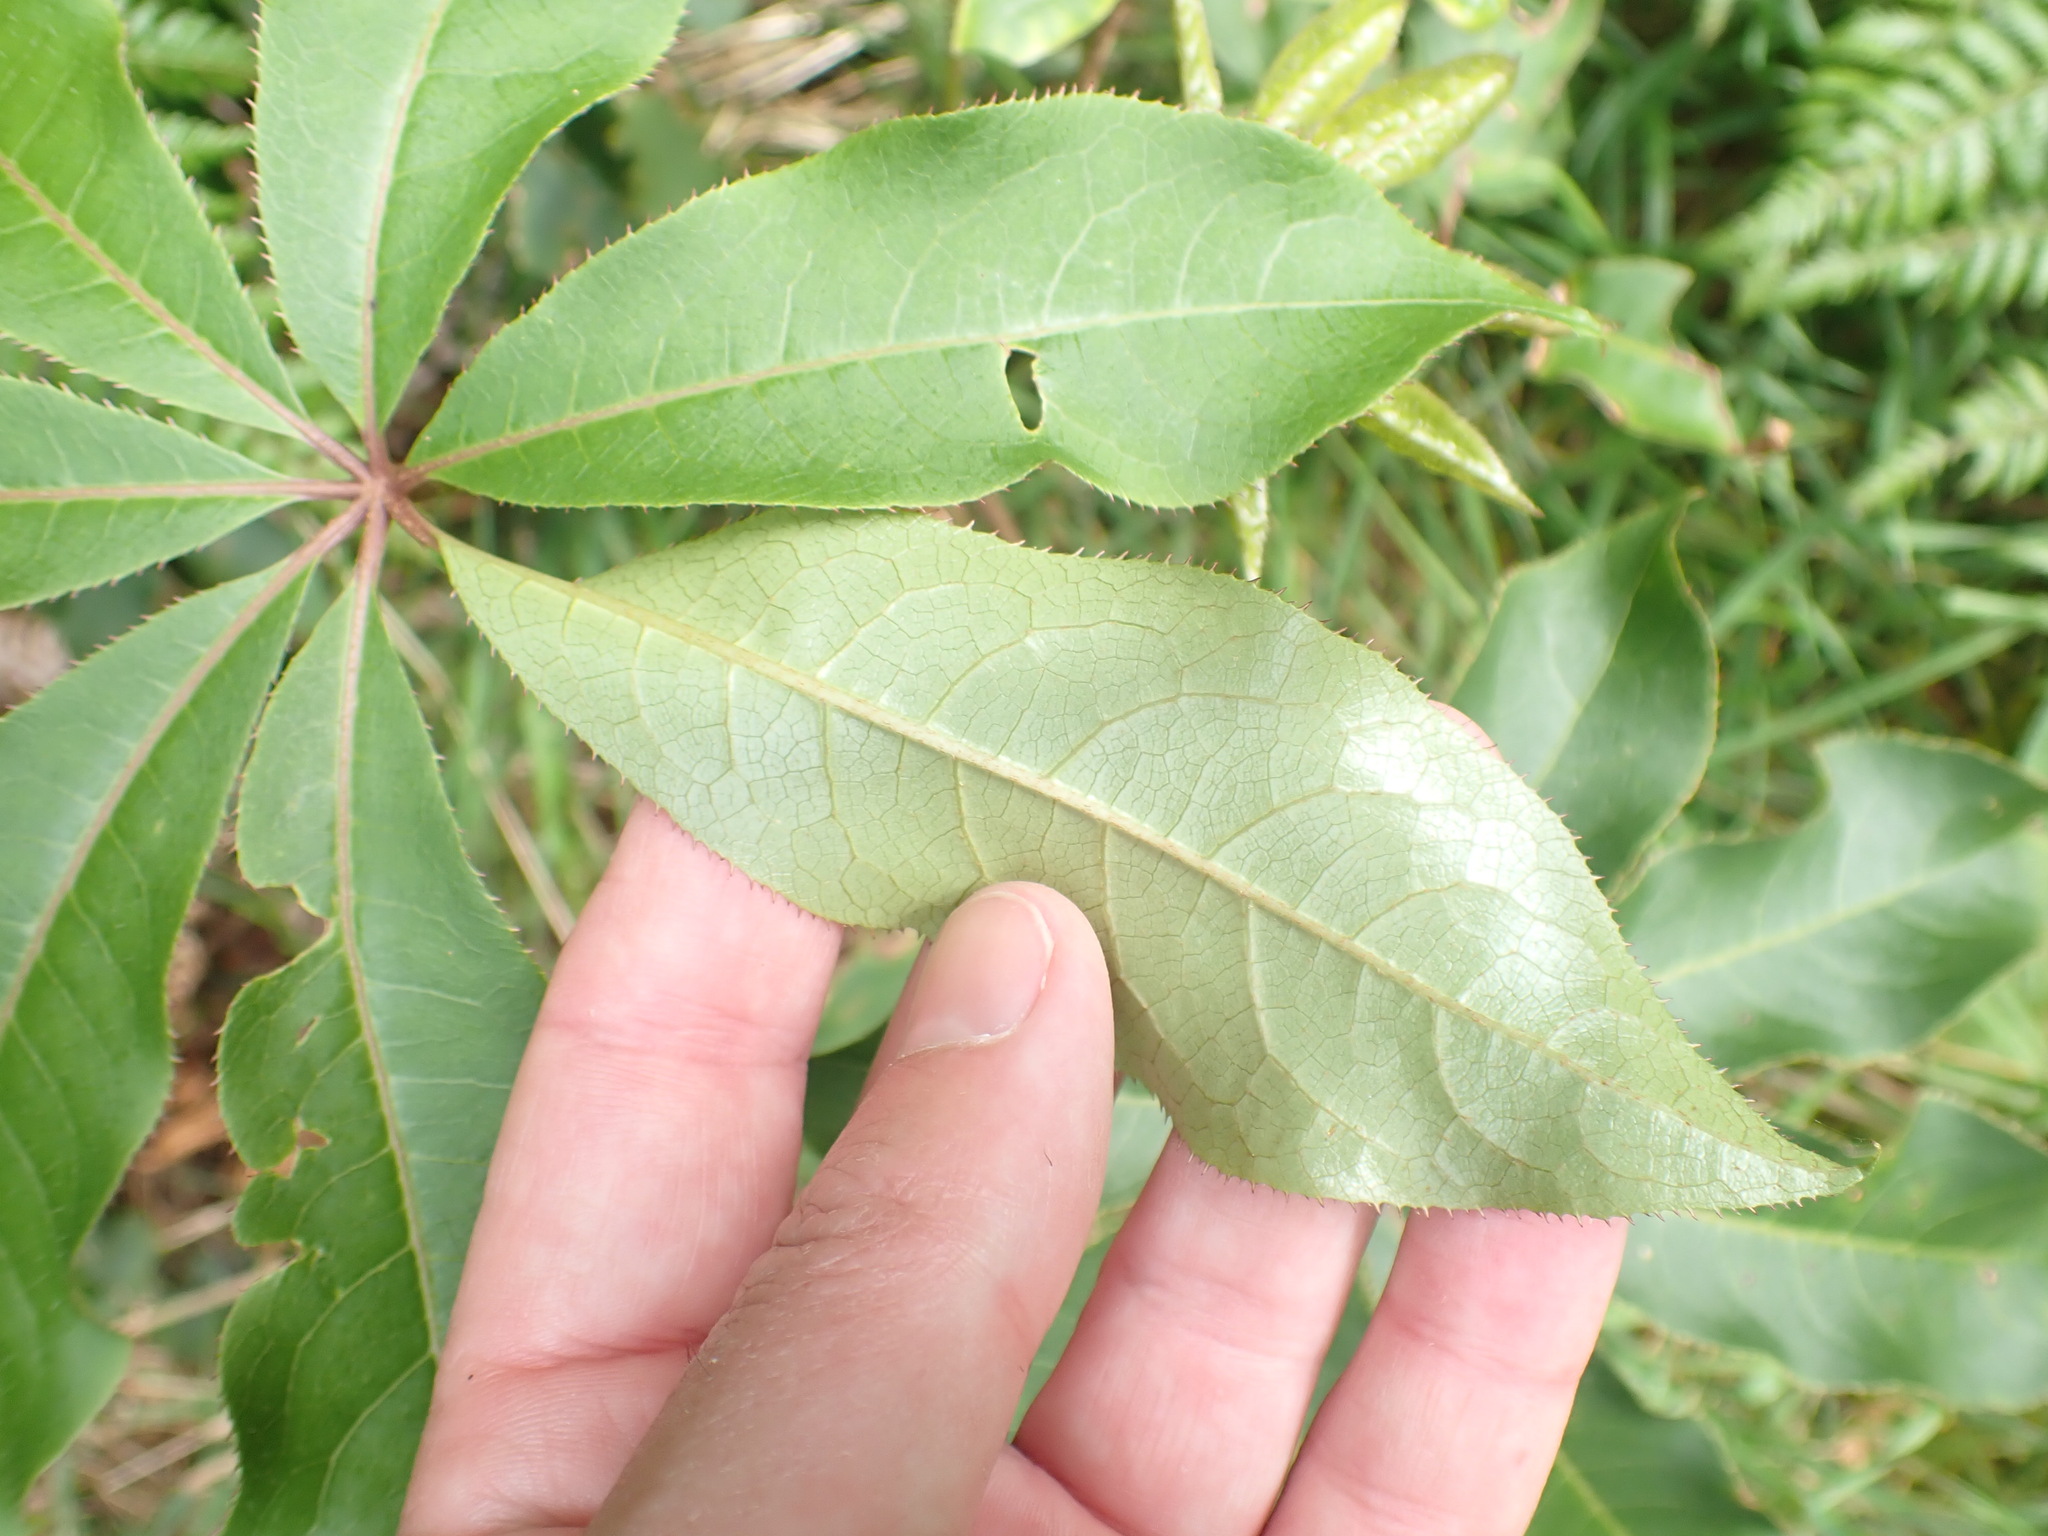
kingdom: Plantae
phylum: Tracheophyta
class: Magnoliopsida
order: Apiales
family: Araliaceae
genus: Schefflera
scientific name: Schefflera digitata
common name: Pate
